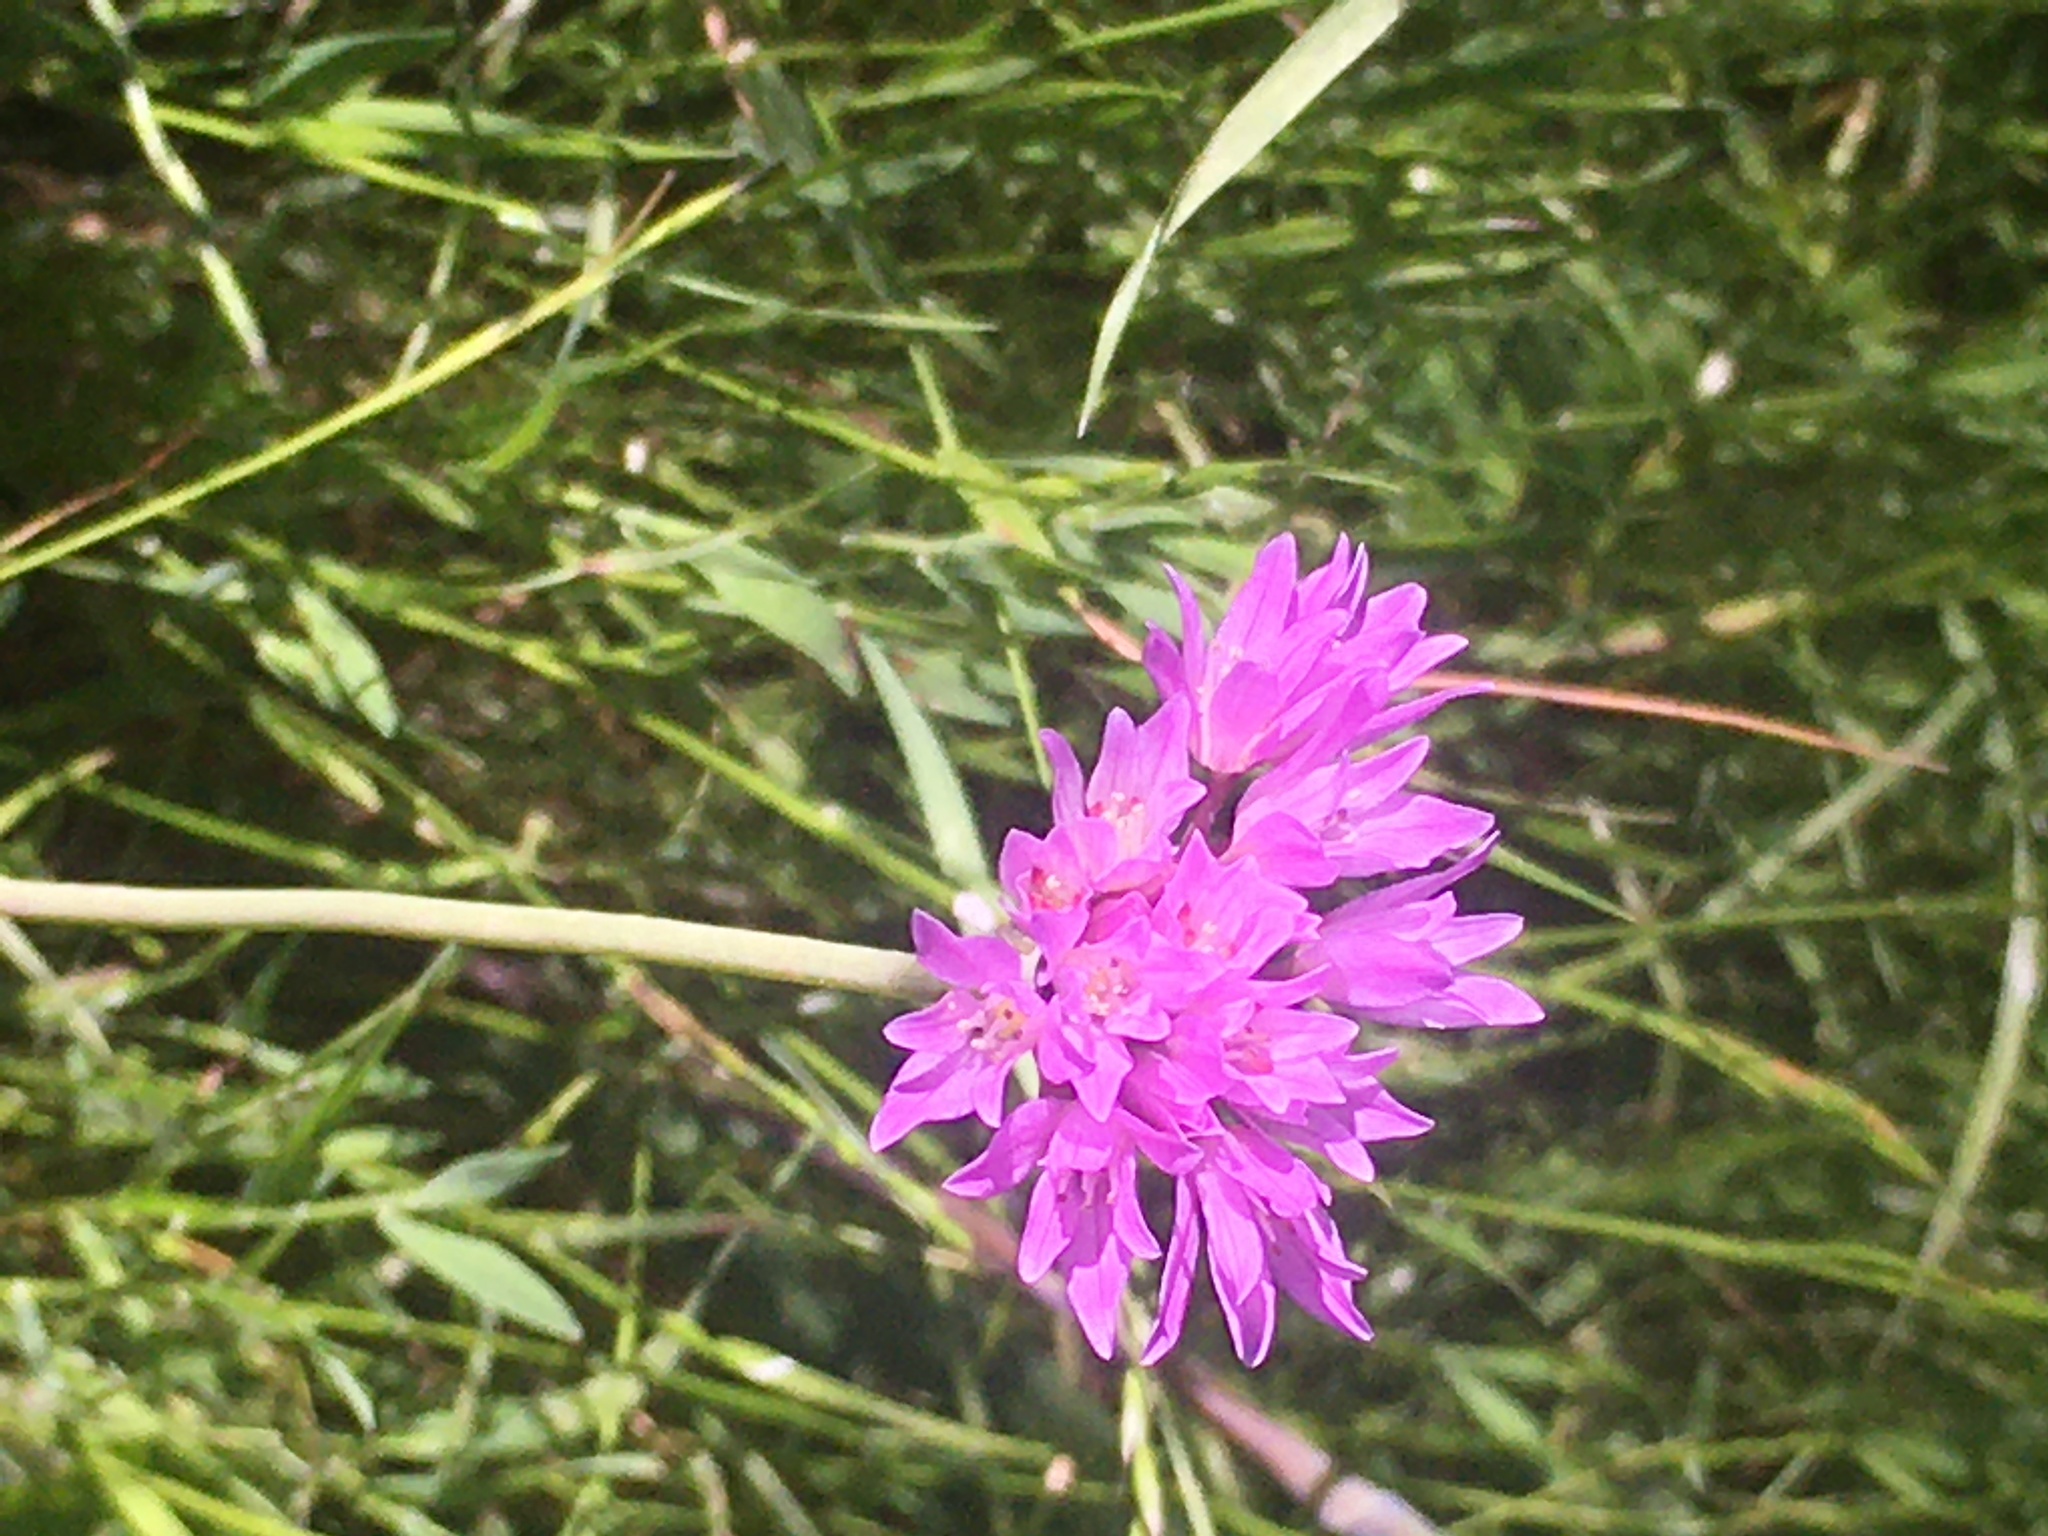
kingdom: Plantae
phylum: Tracheophyta
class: Liliopsida
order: Asparagales
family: Amaryllidaceae
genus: Allium
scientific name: Allium serra
